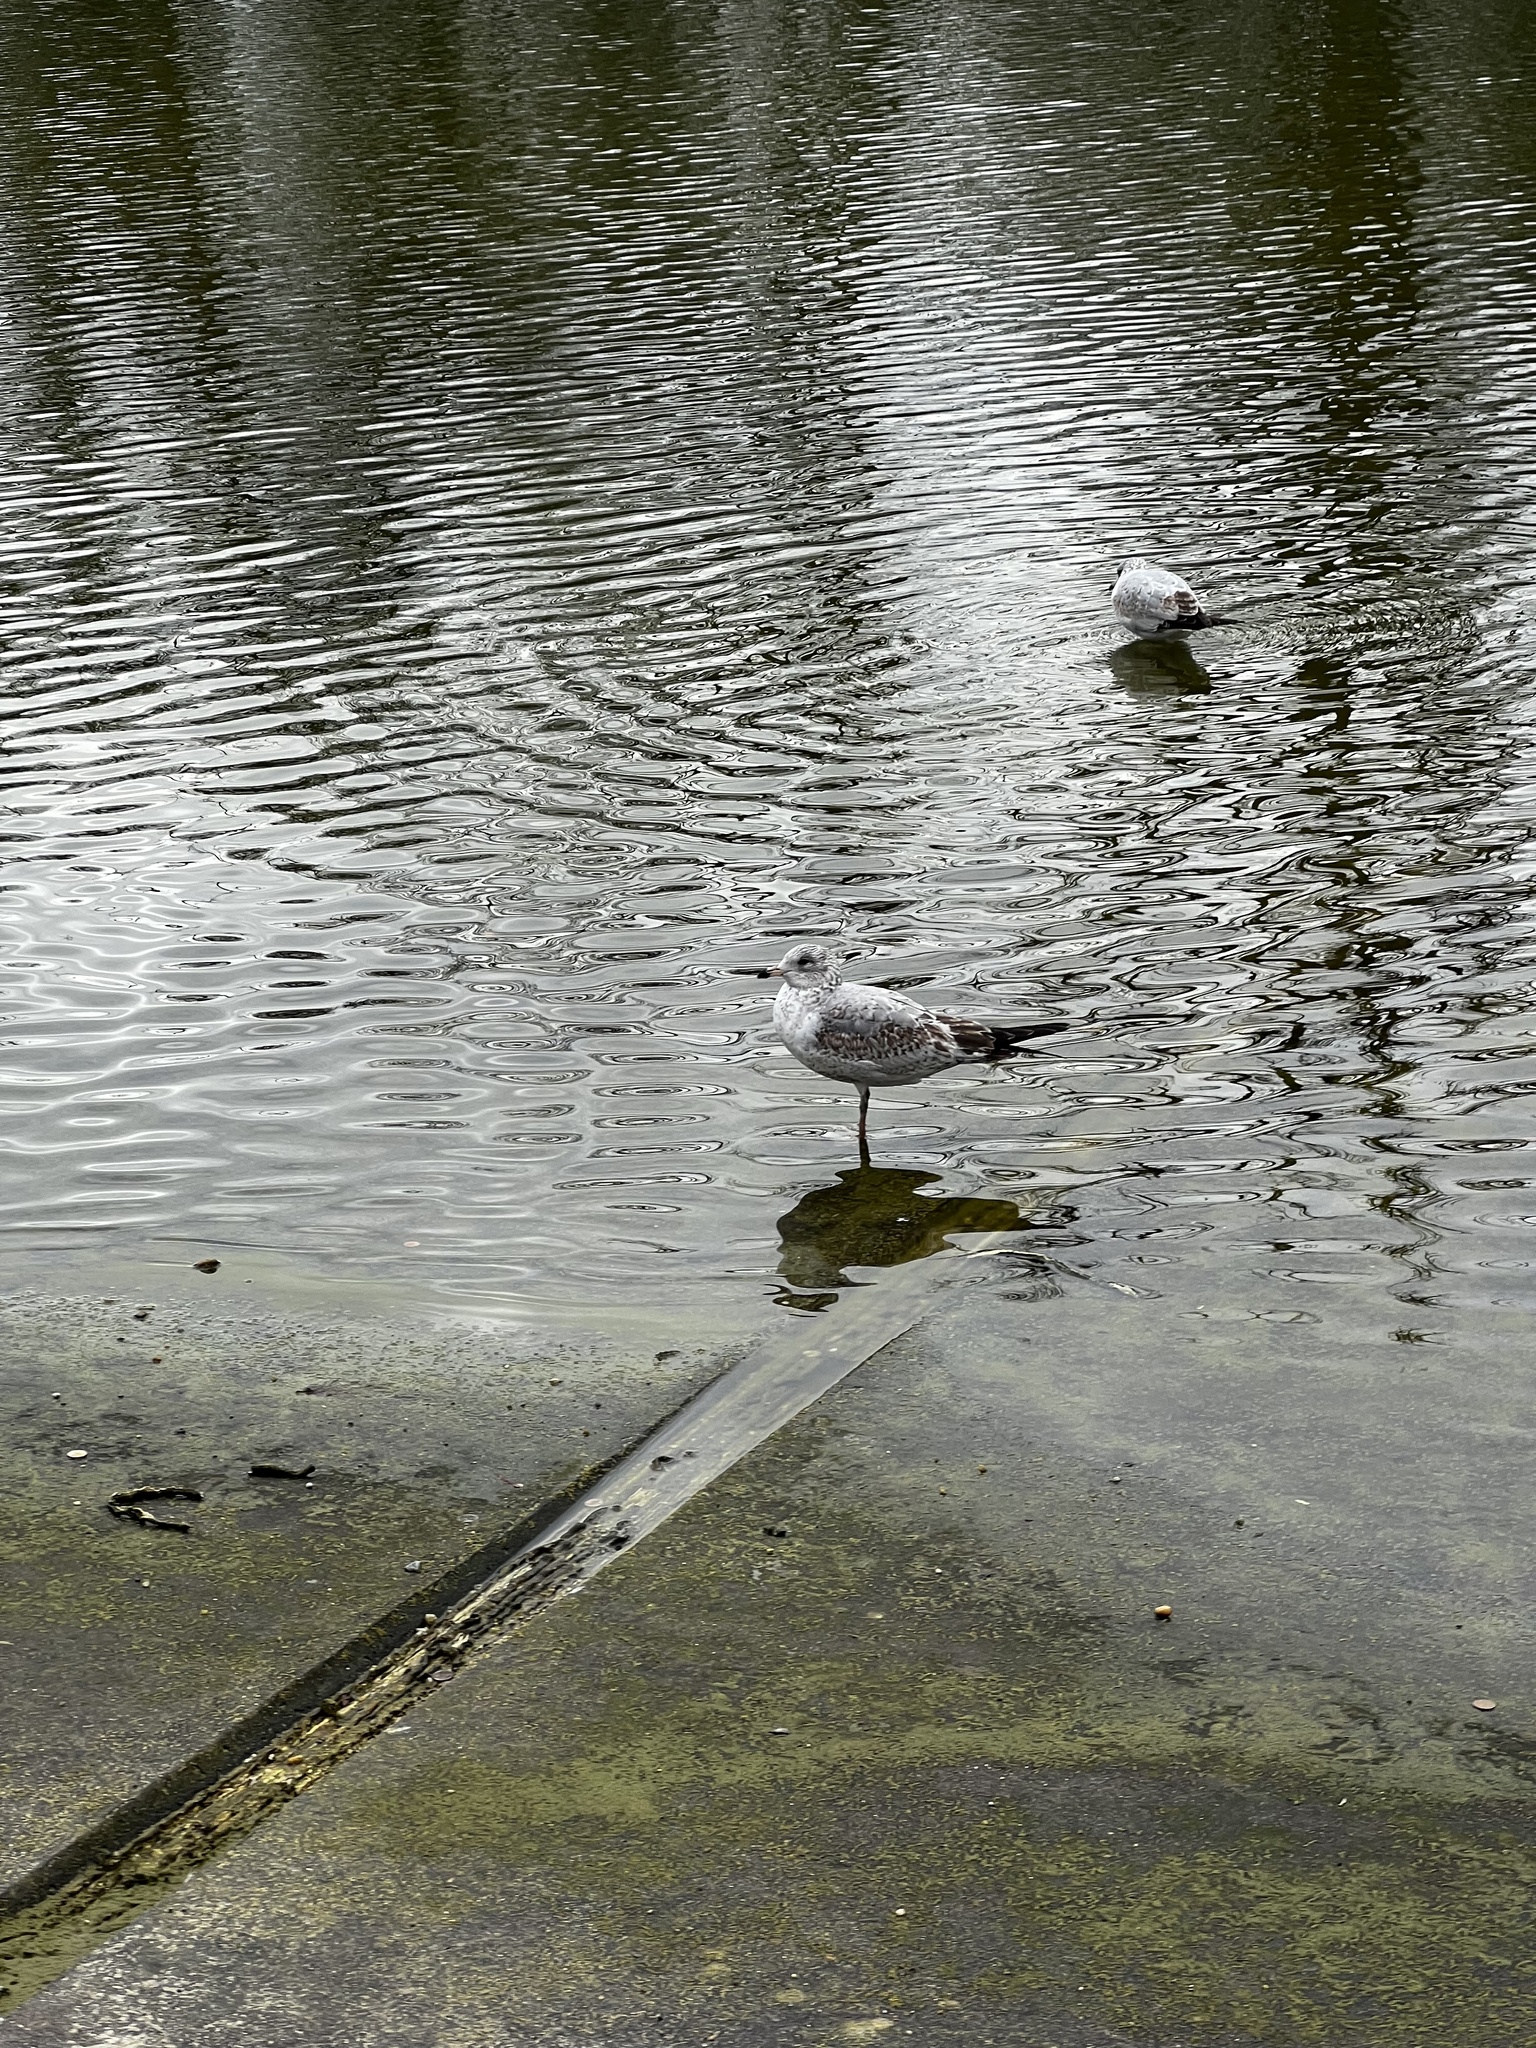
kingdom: Animalia
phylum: Chordata
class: Aves
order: Charadriiformes
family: Laridae
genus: Larus
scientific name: Larus delawarensis
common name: Ring-billed gull
